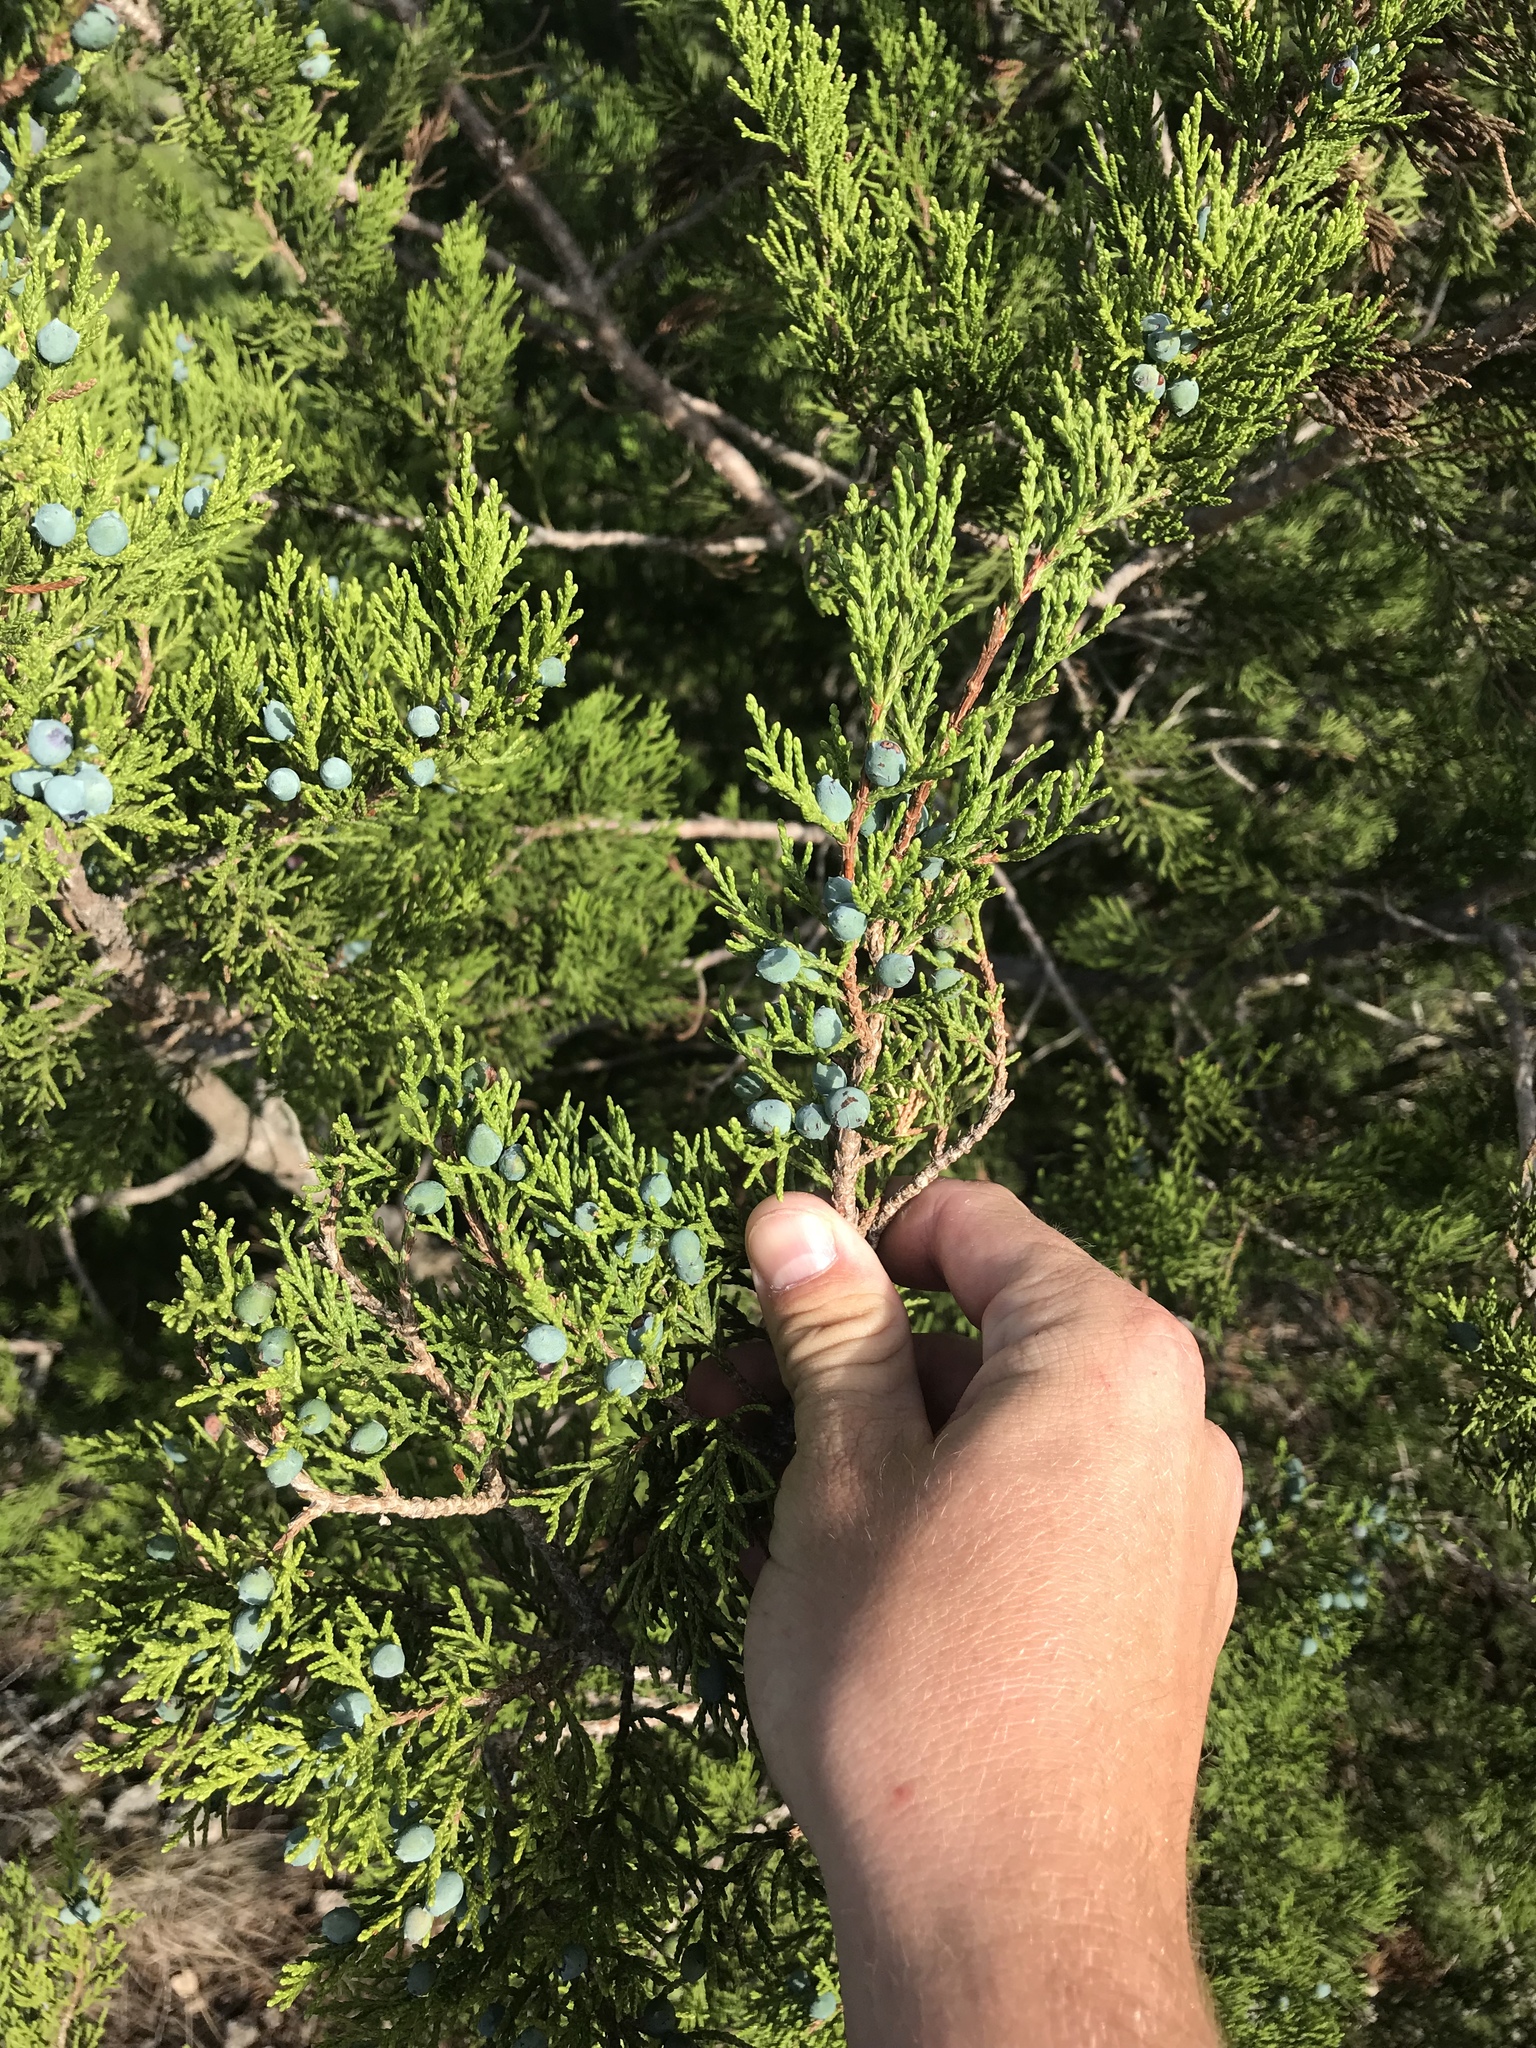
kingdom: Plantae
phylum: Tracheophyta
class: Pinopsida
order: Pinales
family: Cupressaceae
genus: Juniperus
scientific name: Juniperus ashei
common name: Mexican juniper
